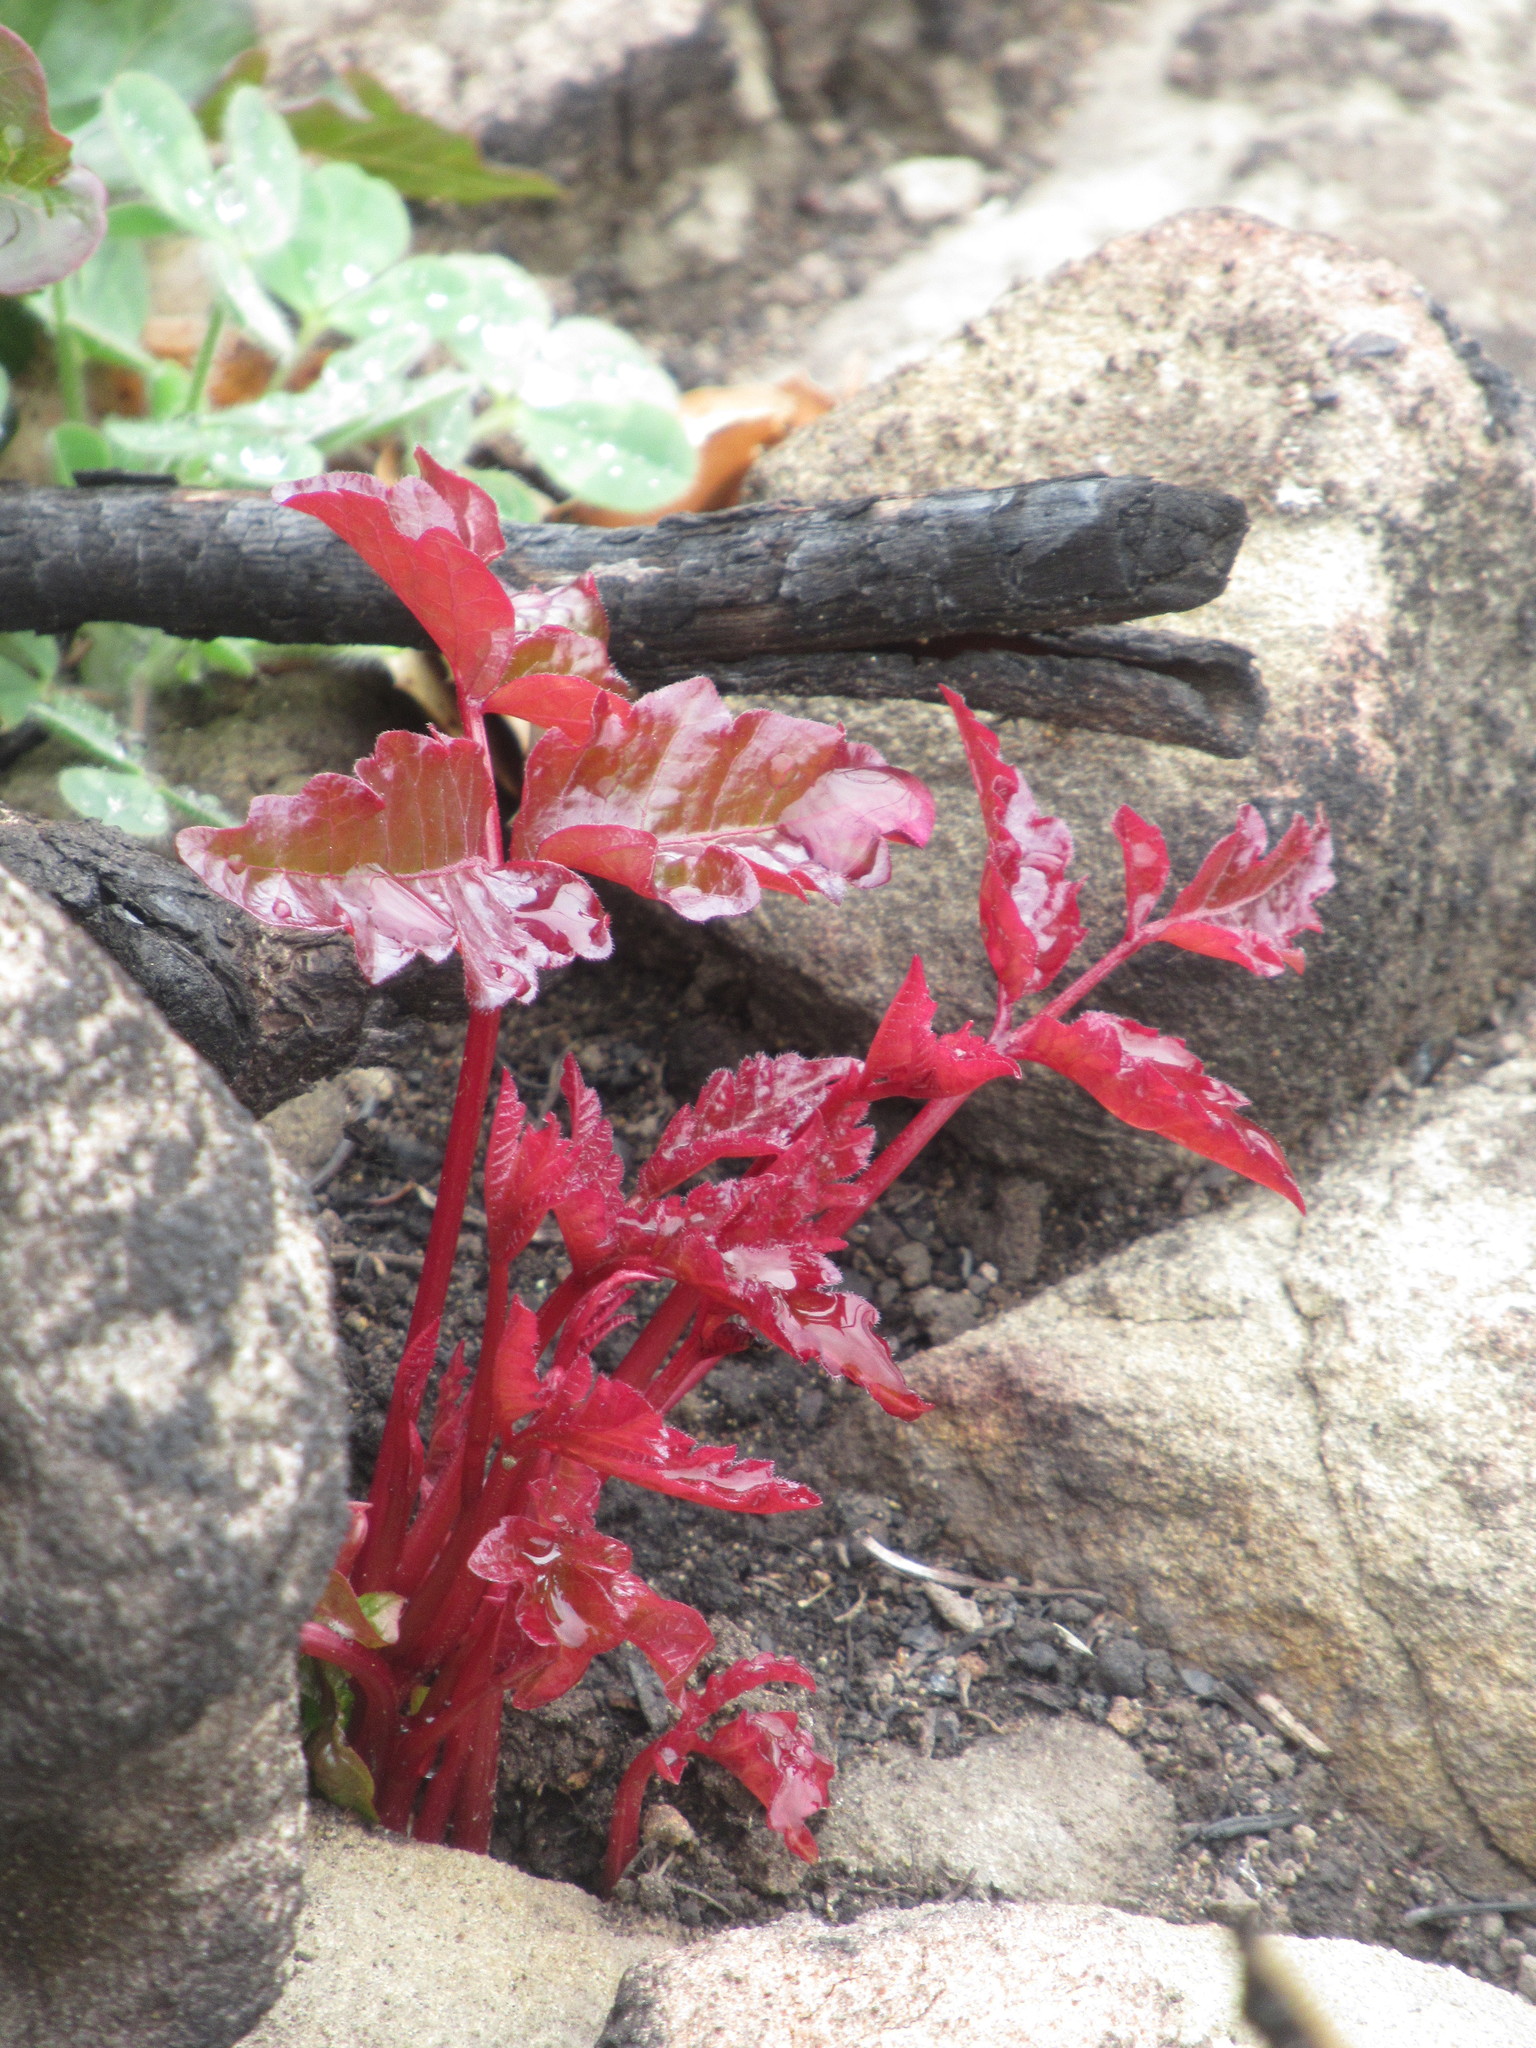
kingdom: Plantae
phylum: Tracheophyta
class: Magnoliopsida
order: Sapindales
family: Anacardiaceae
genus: Toxicodendron
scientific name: Toxicodendron diversilobum
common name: Pacific poison-oak
